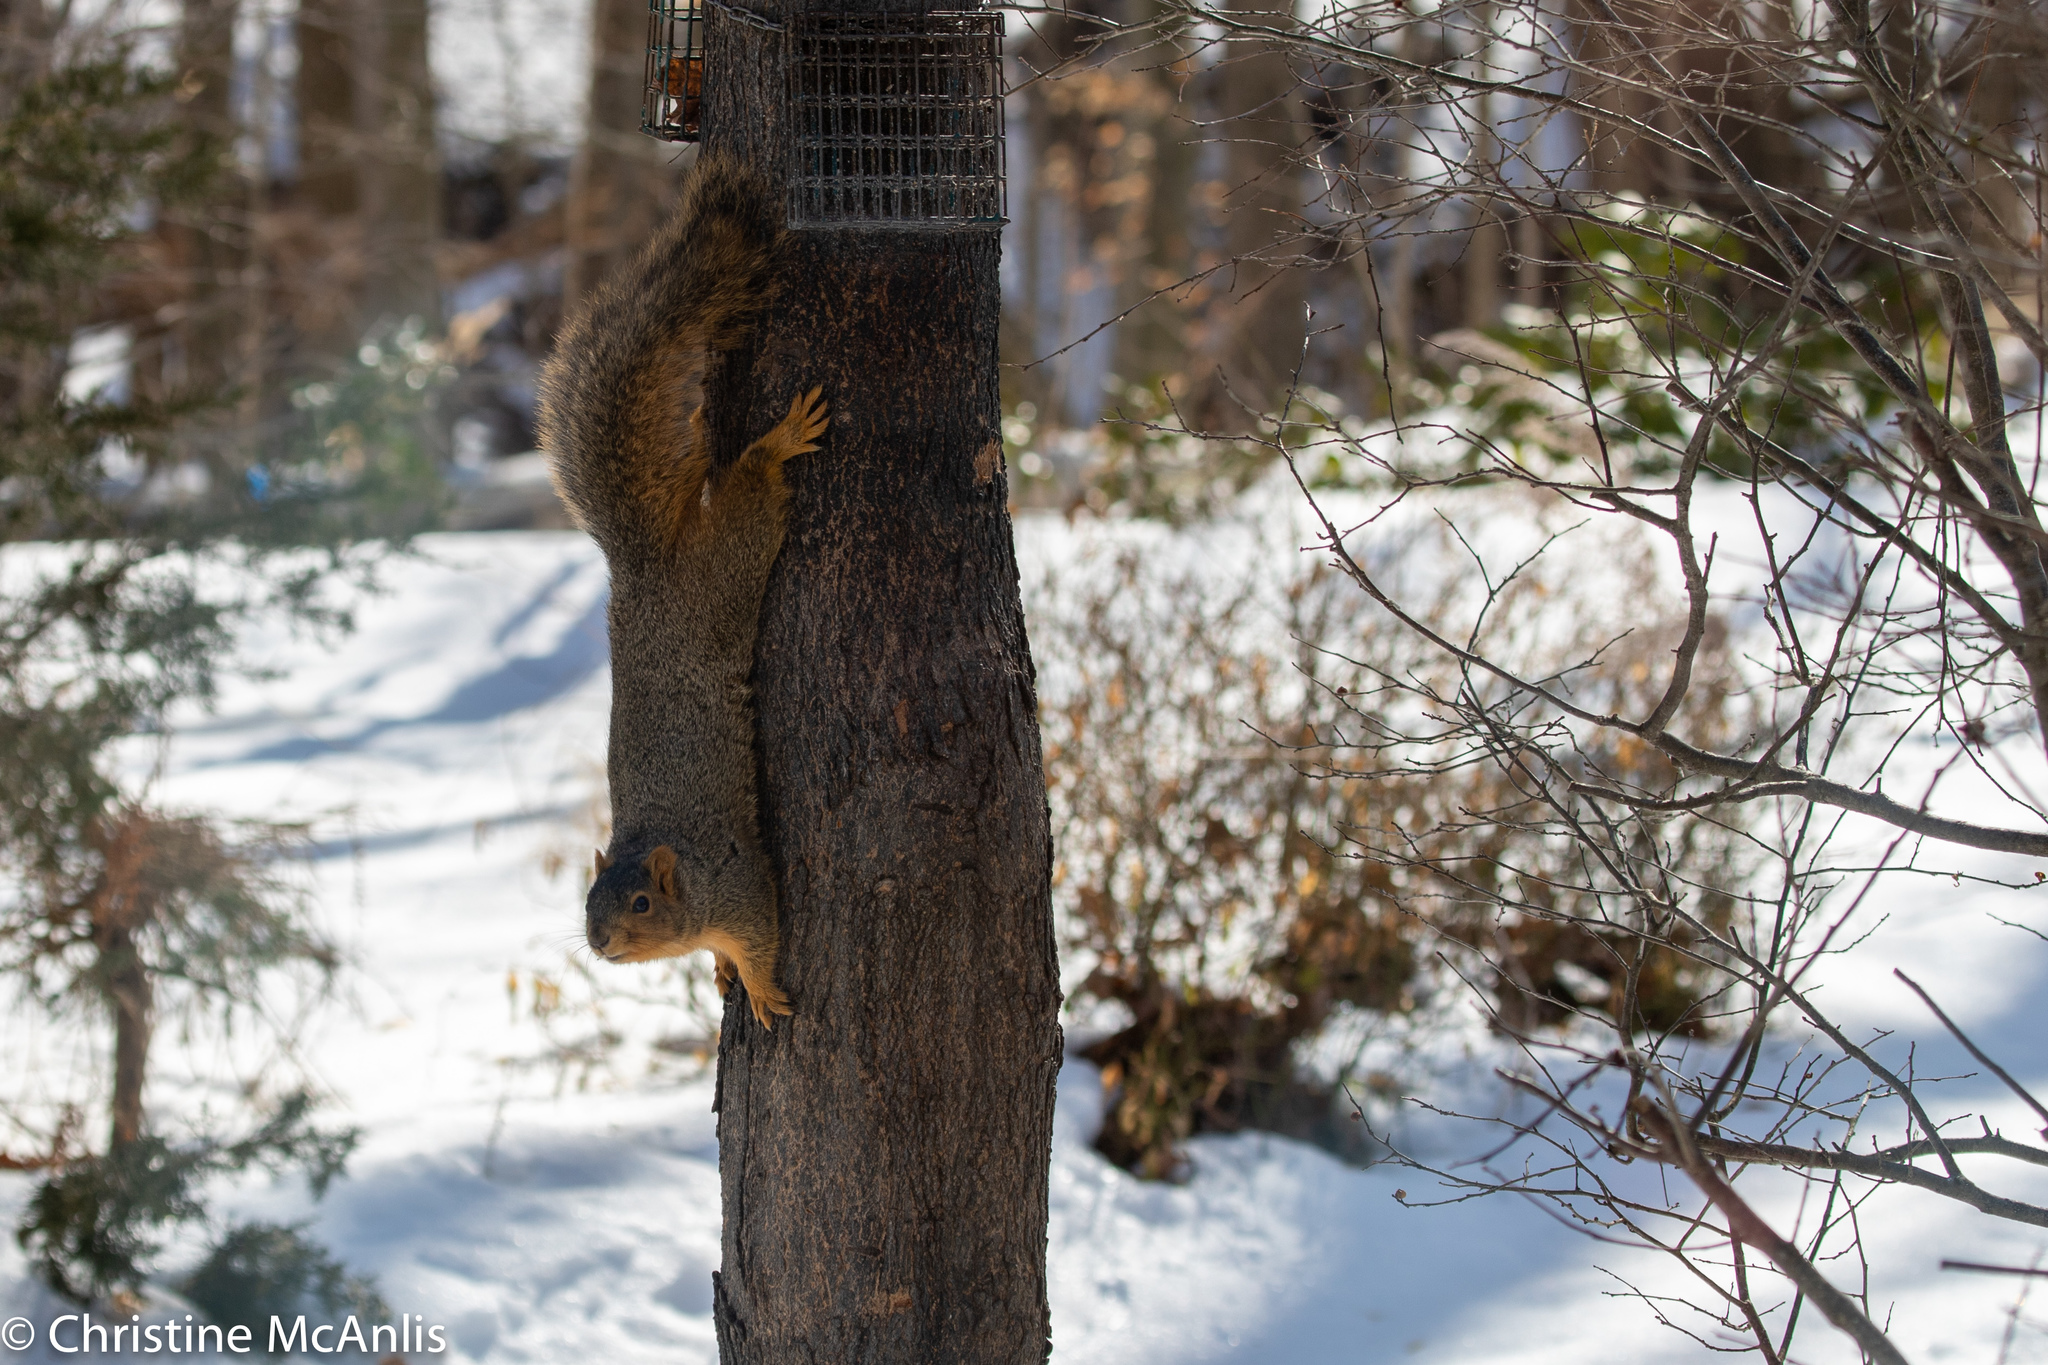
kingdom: Animalia
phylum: Chordata
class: Mammalia
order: Rodentia
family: Sciuridae
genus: Sciurus
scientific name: Sciurus niger
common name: Fox squirrel
